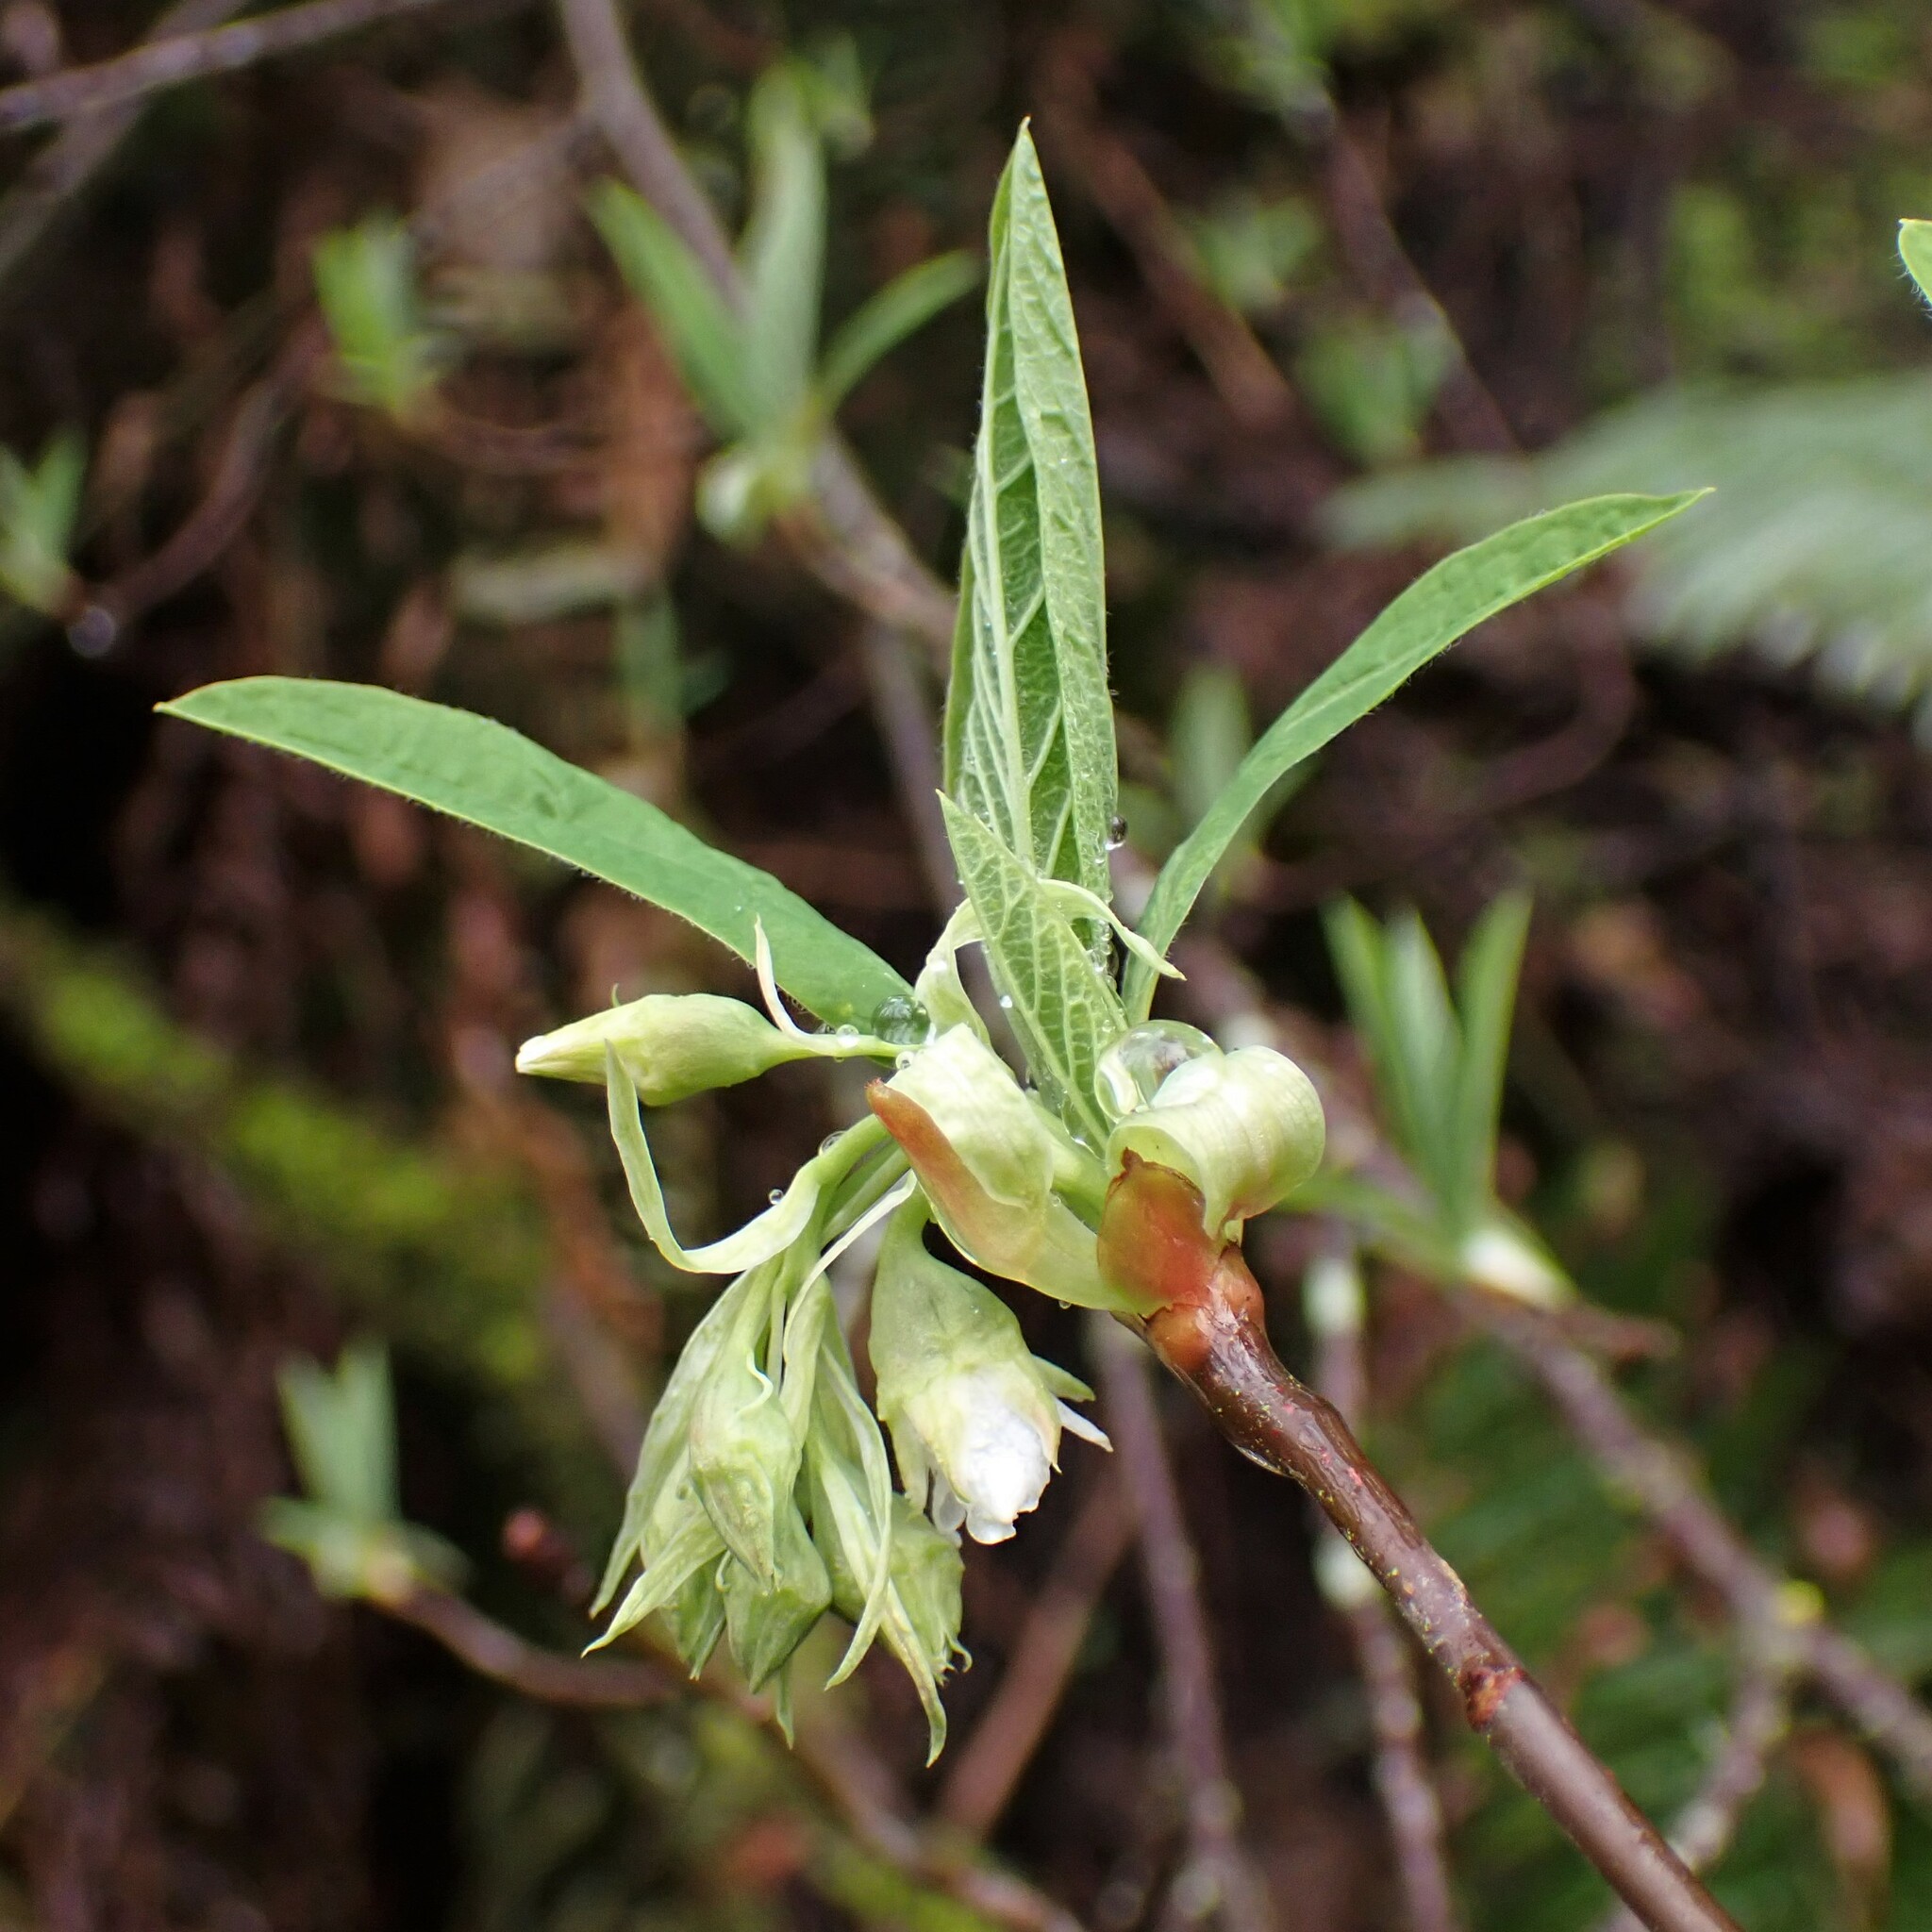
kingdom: Plantae
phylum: Tracheophyta
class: Magnoliopsida
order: Rosales
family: Rosaceae
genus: Oemleria
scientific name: Oemleria cerasiformis
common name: Osoberry
